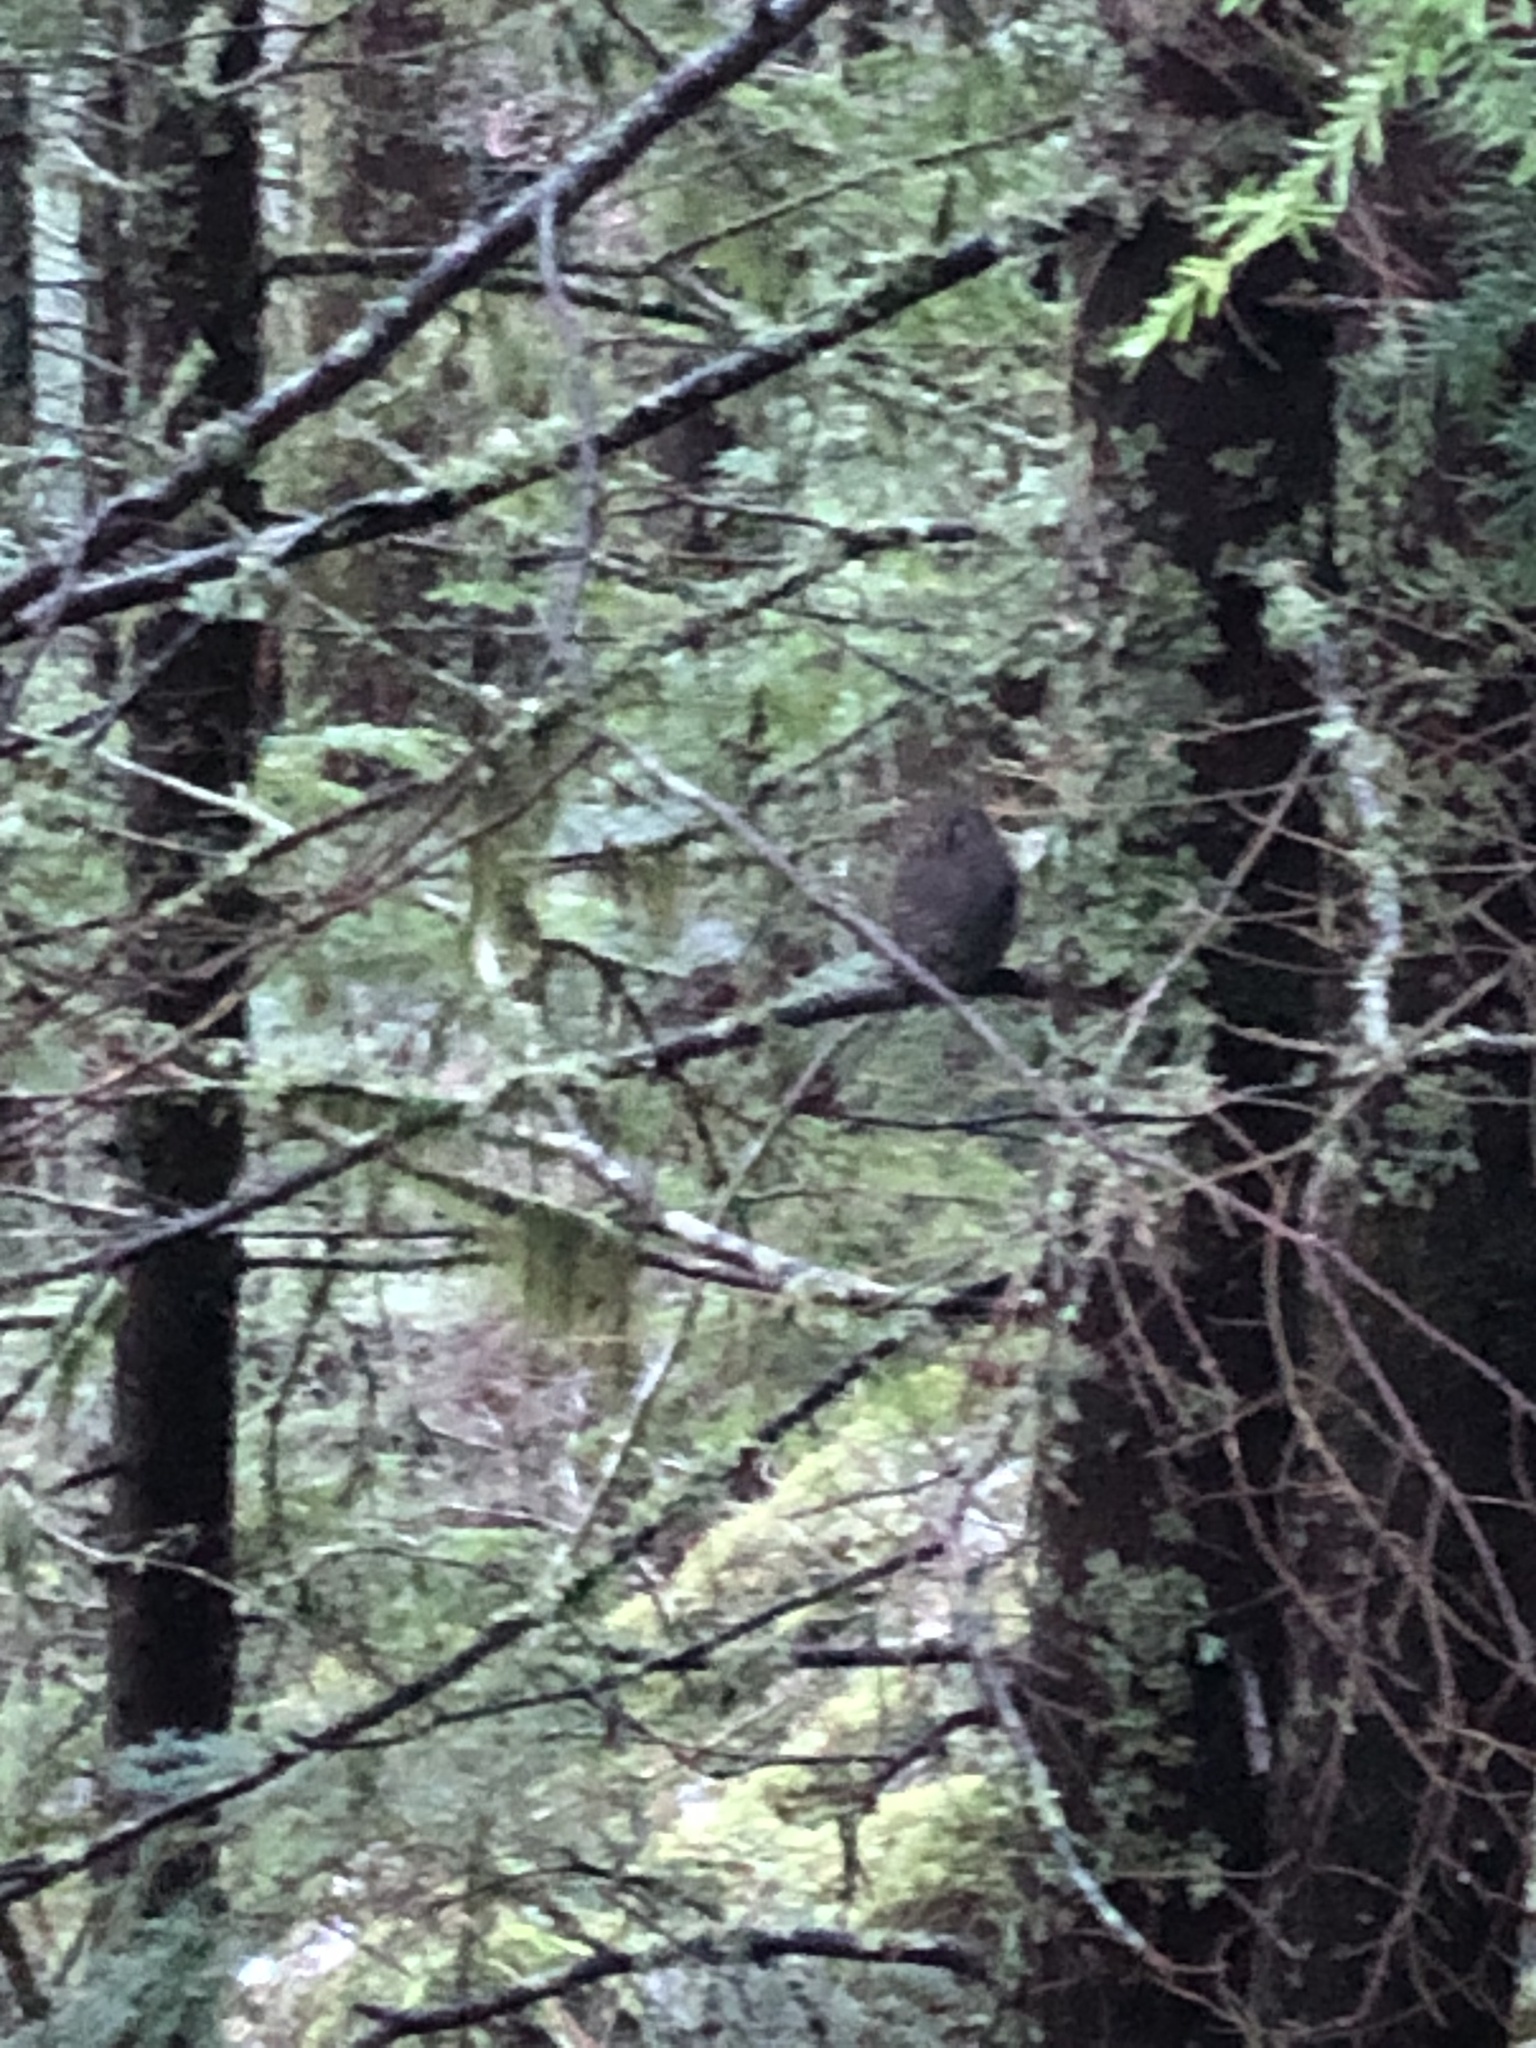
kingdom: Animalia
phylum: Chordata
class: Aves
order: Strigiformes
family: Strigidae
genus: Glaucidium
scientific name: Glaucidium gnoma
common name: Northern pygmy-owl
